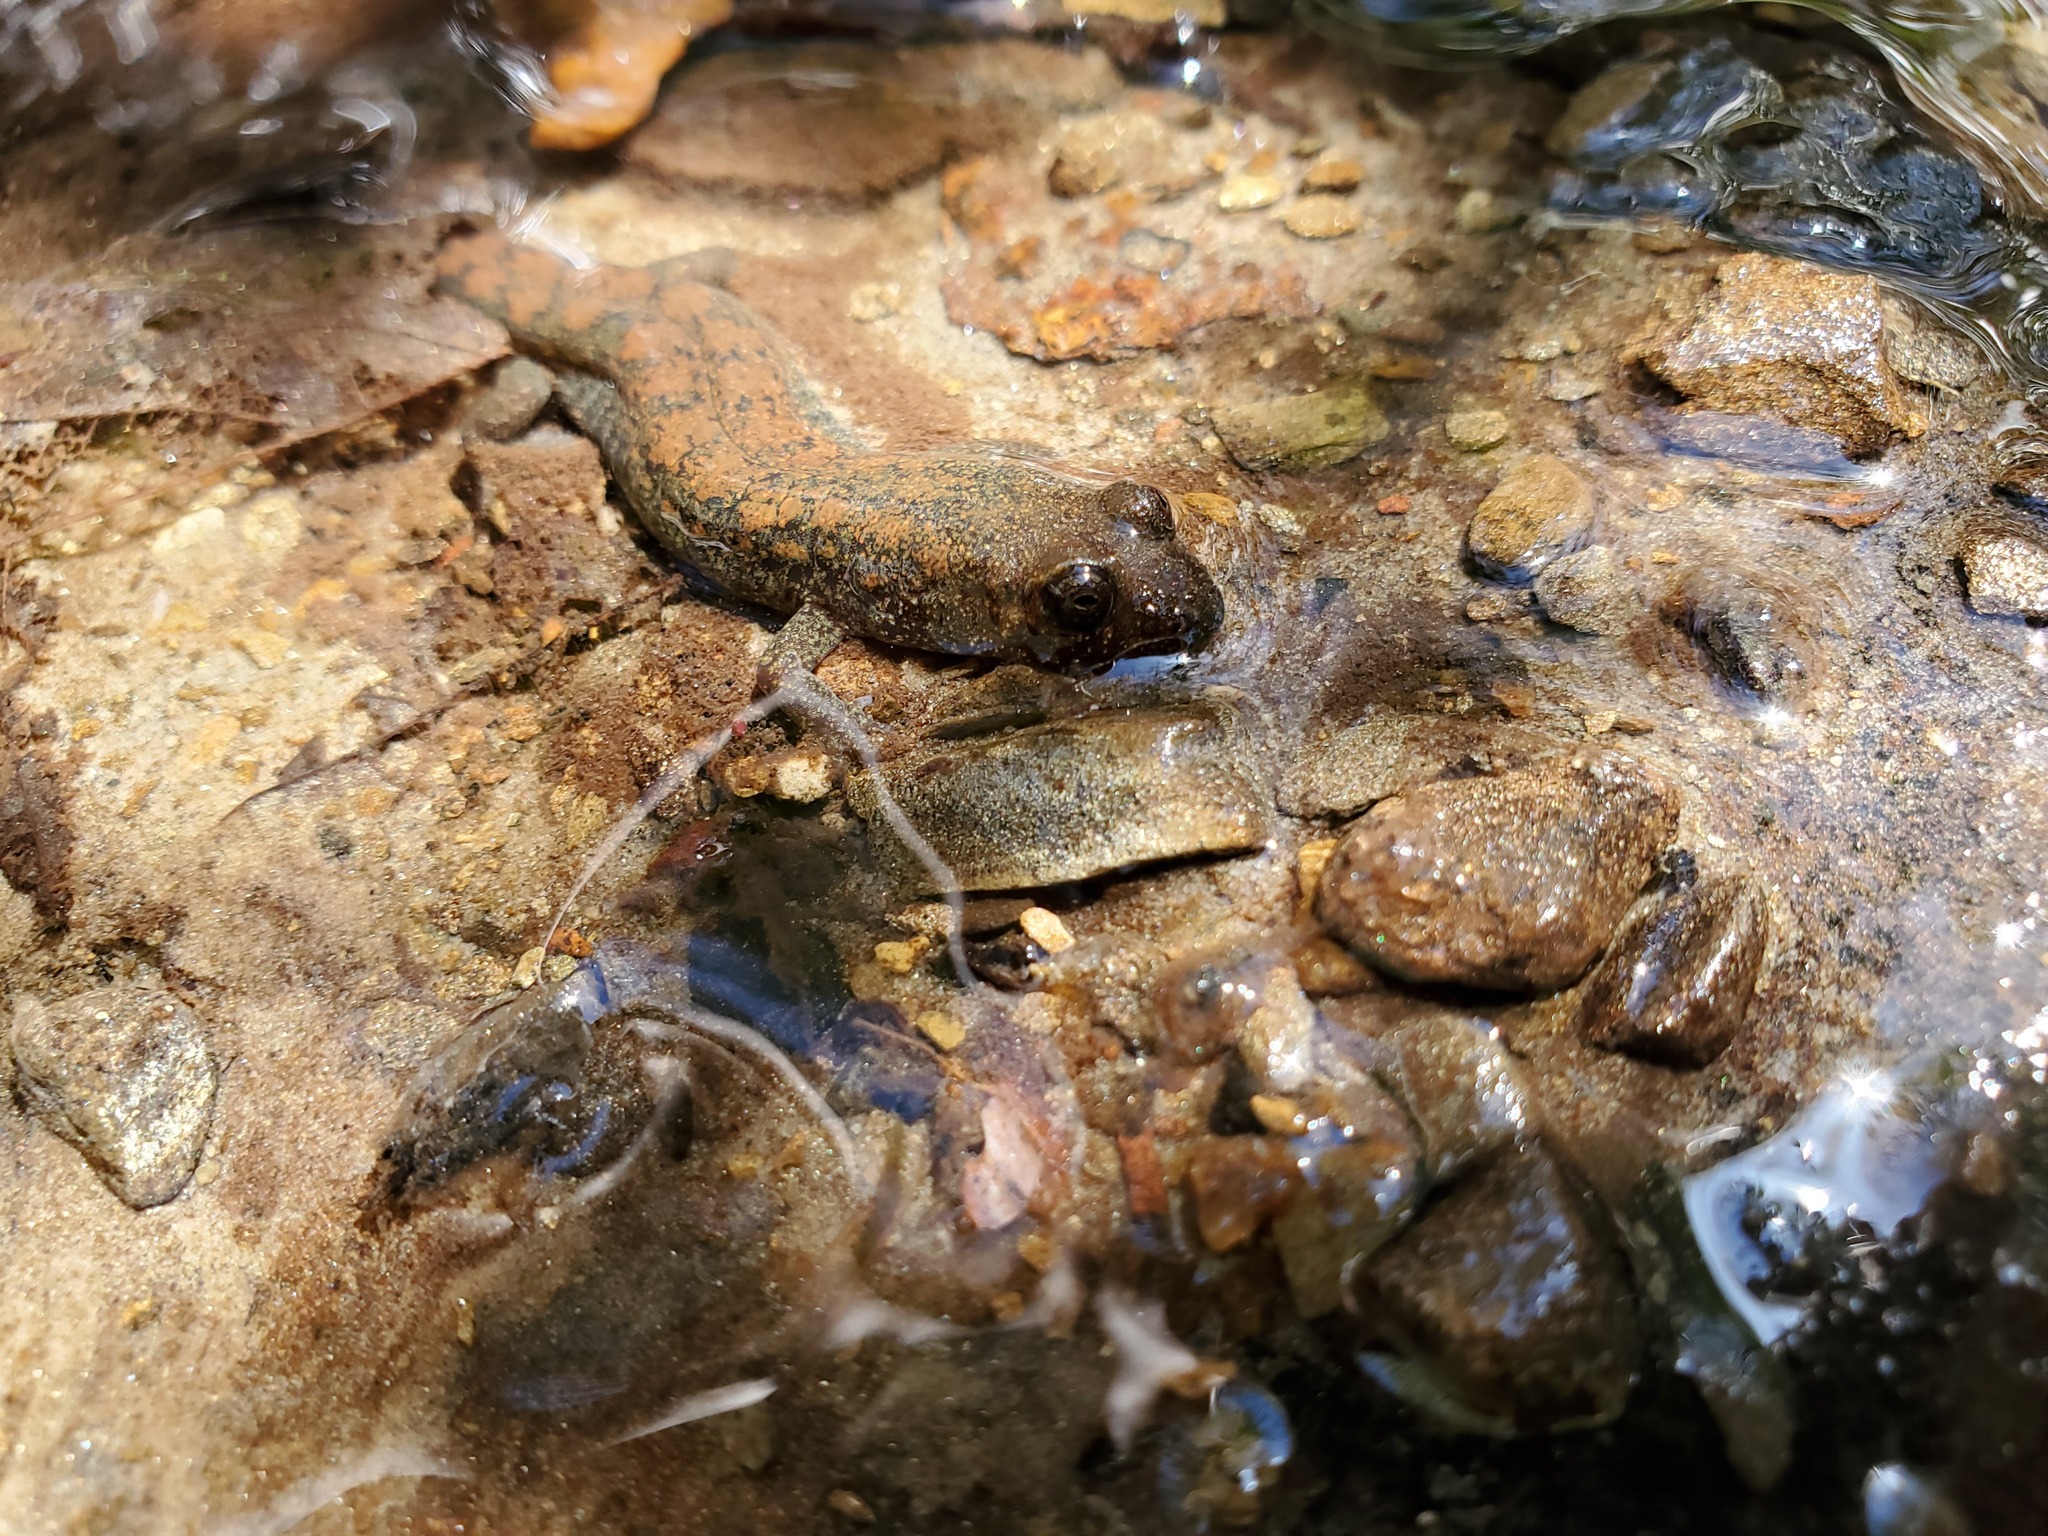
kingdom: Animalia
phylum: Chordata
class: Amphibia
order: Caudata
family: Plethodontidae
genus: Desmognathus
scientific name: Desmognathus
